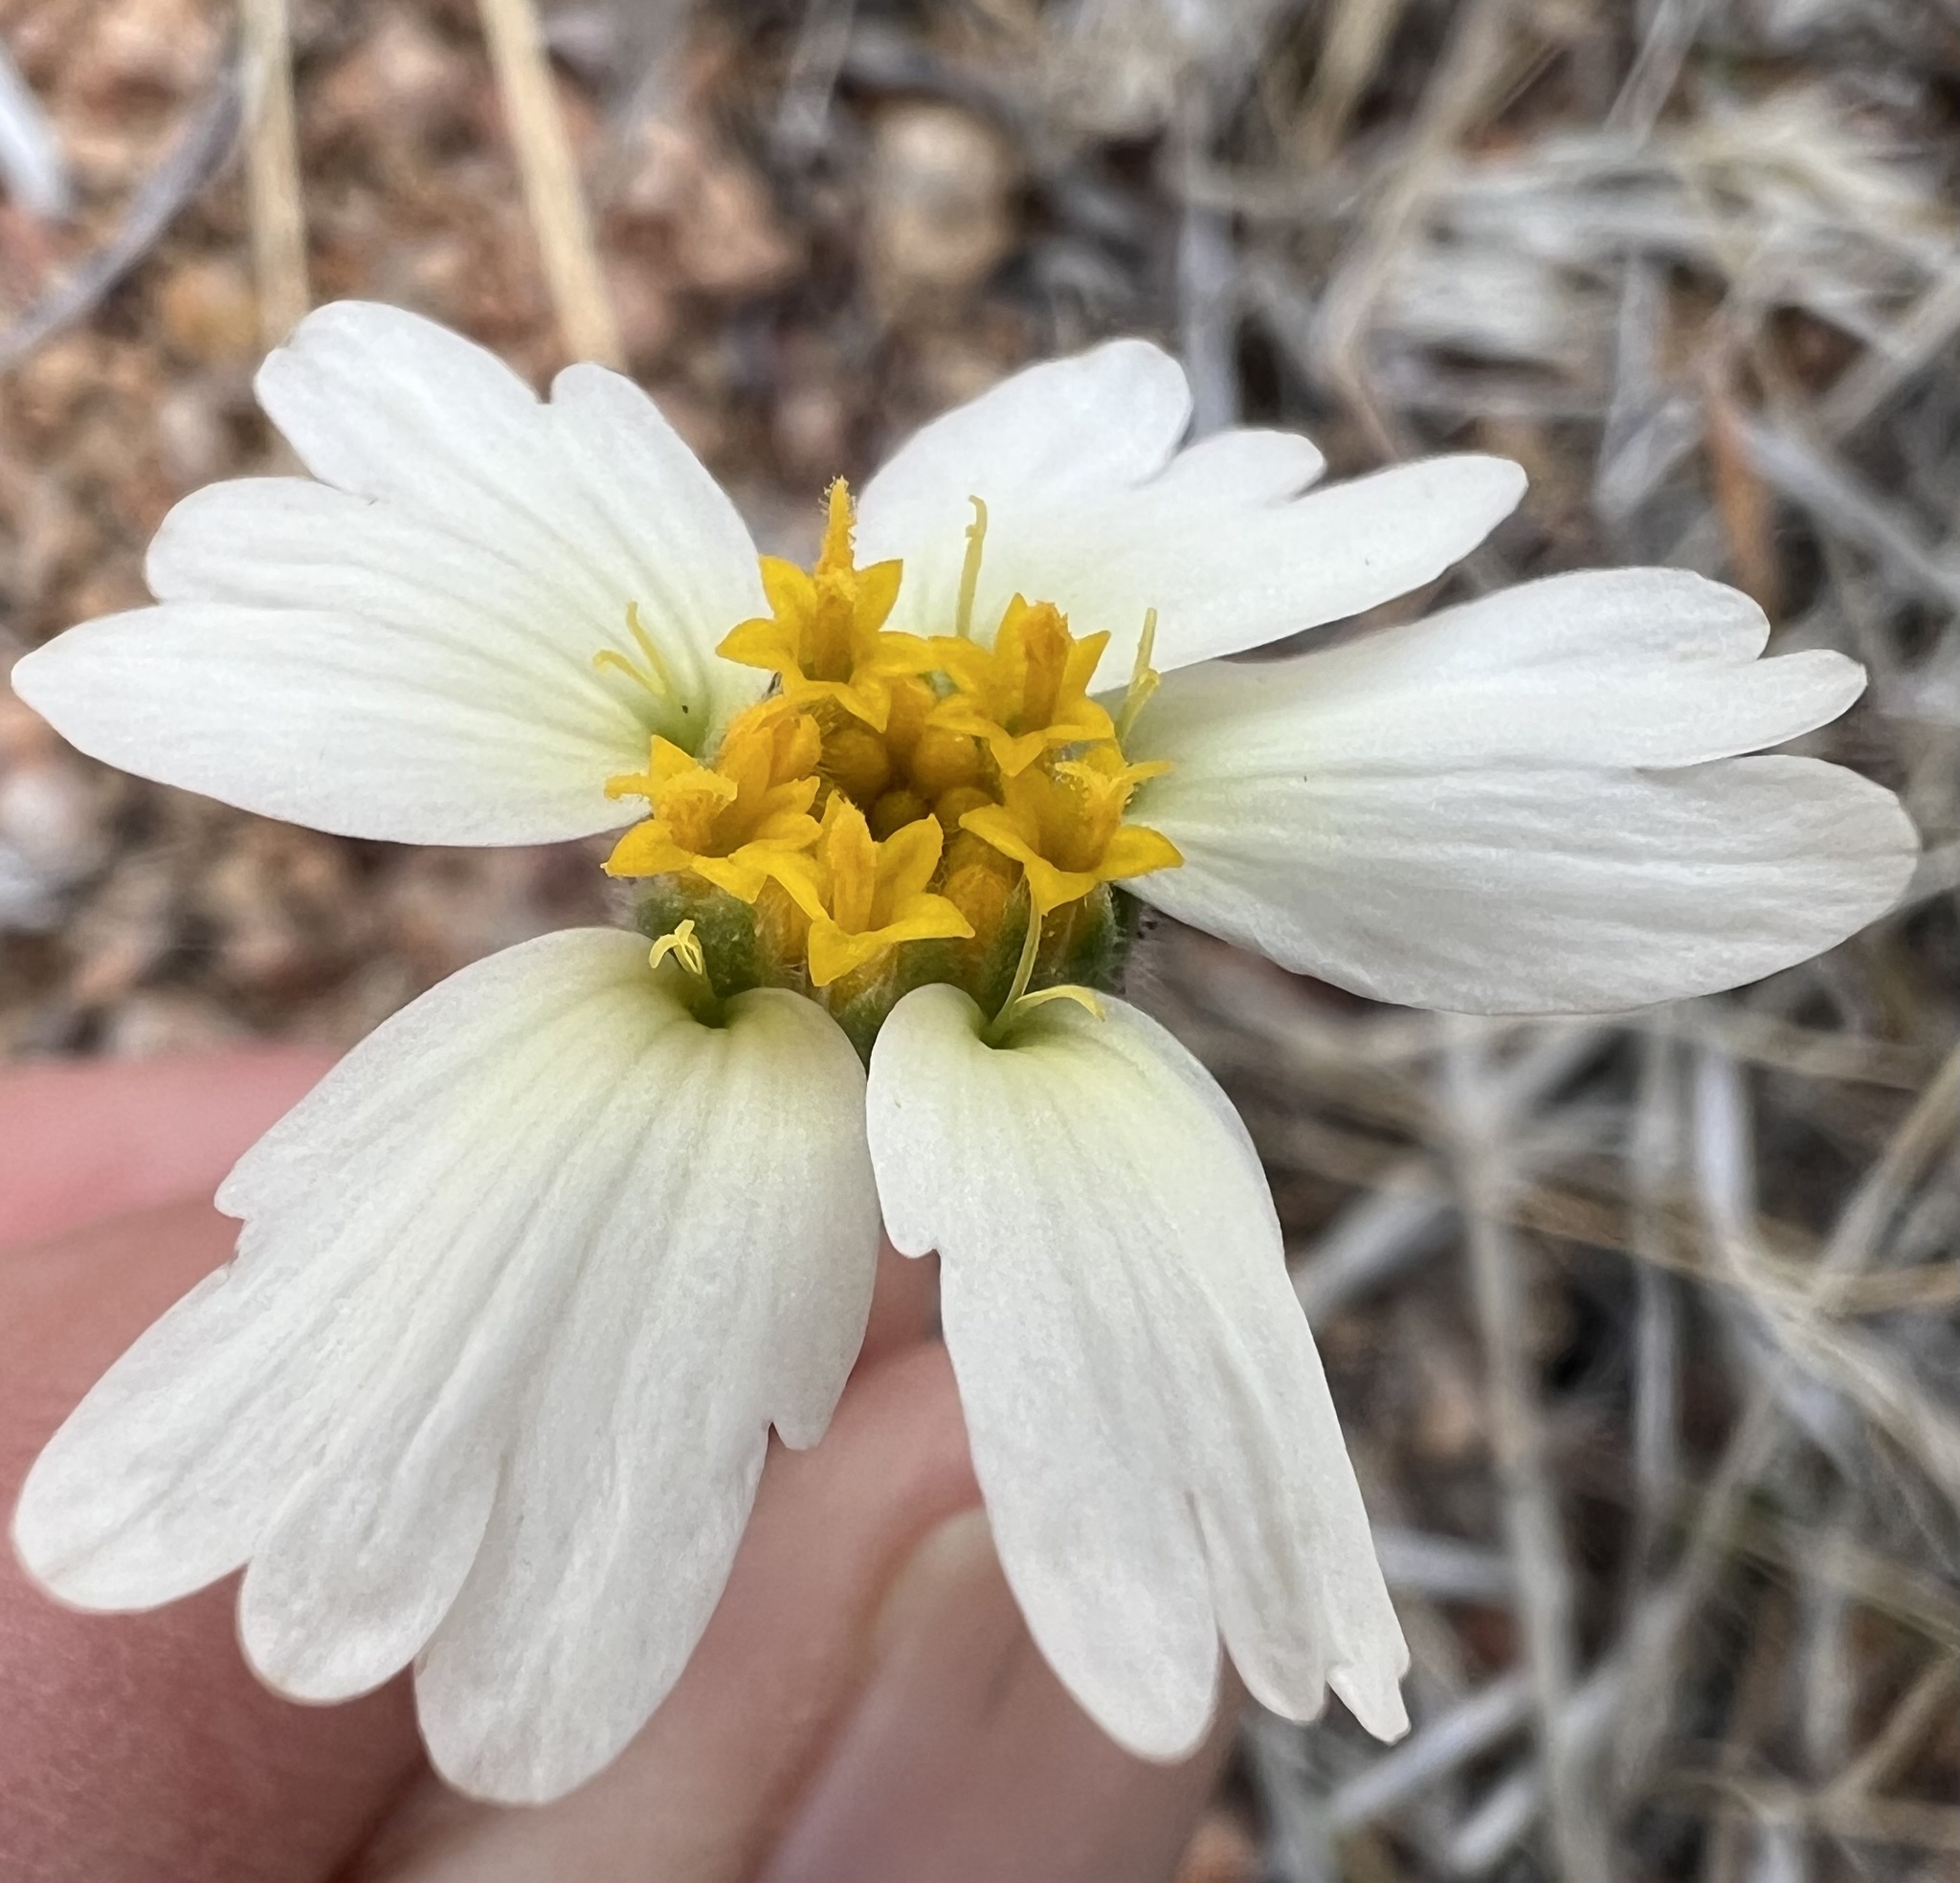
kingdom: Plantae
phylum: Tracheophyta
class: Magnoliopsida
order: Asterales
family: Asteraceae
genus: Layia
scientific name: Layia glandulosa
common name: White layia
